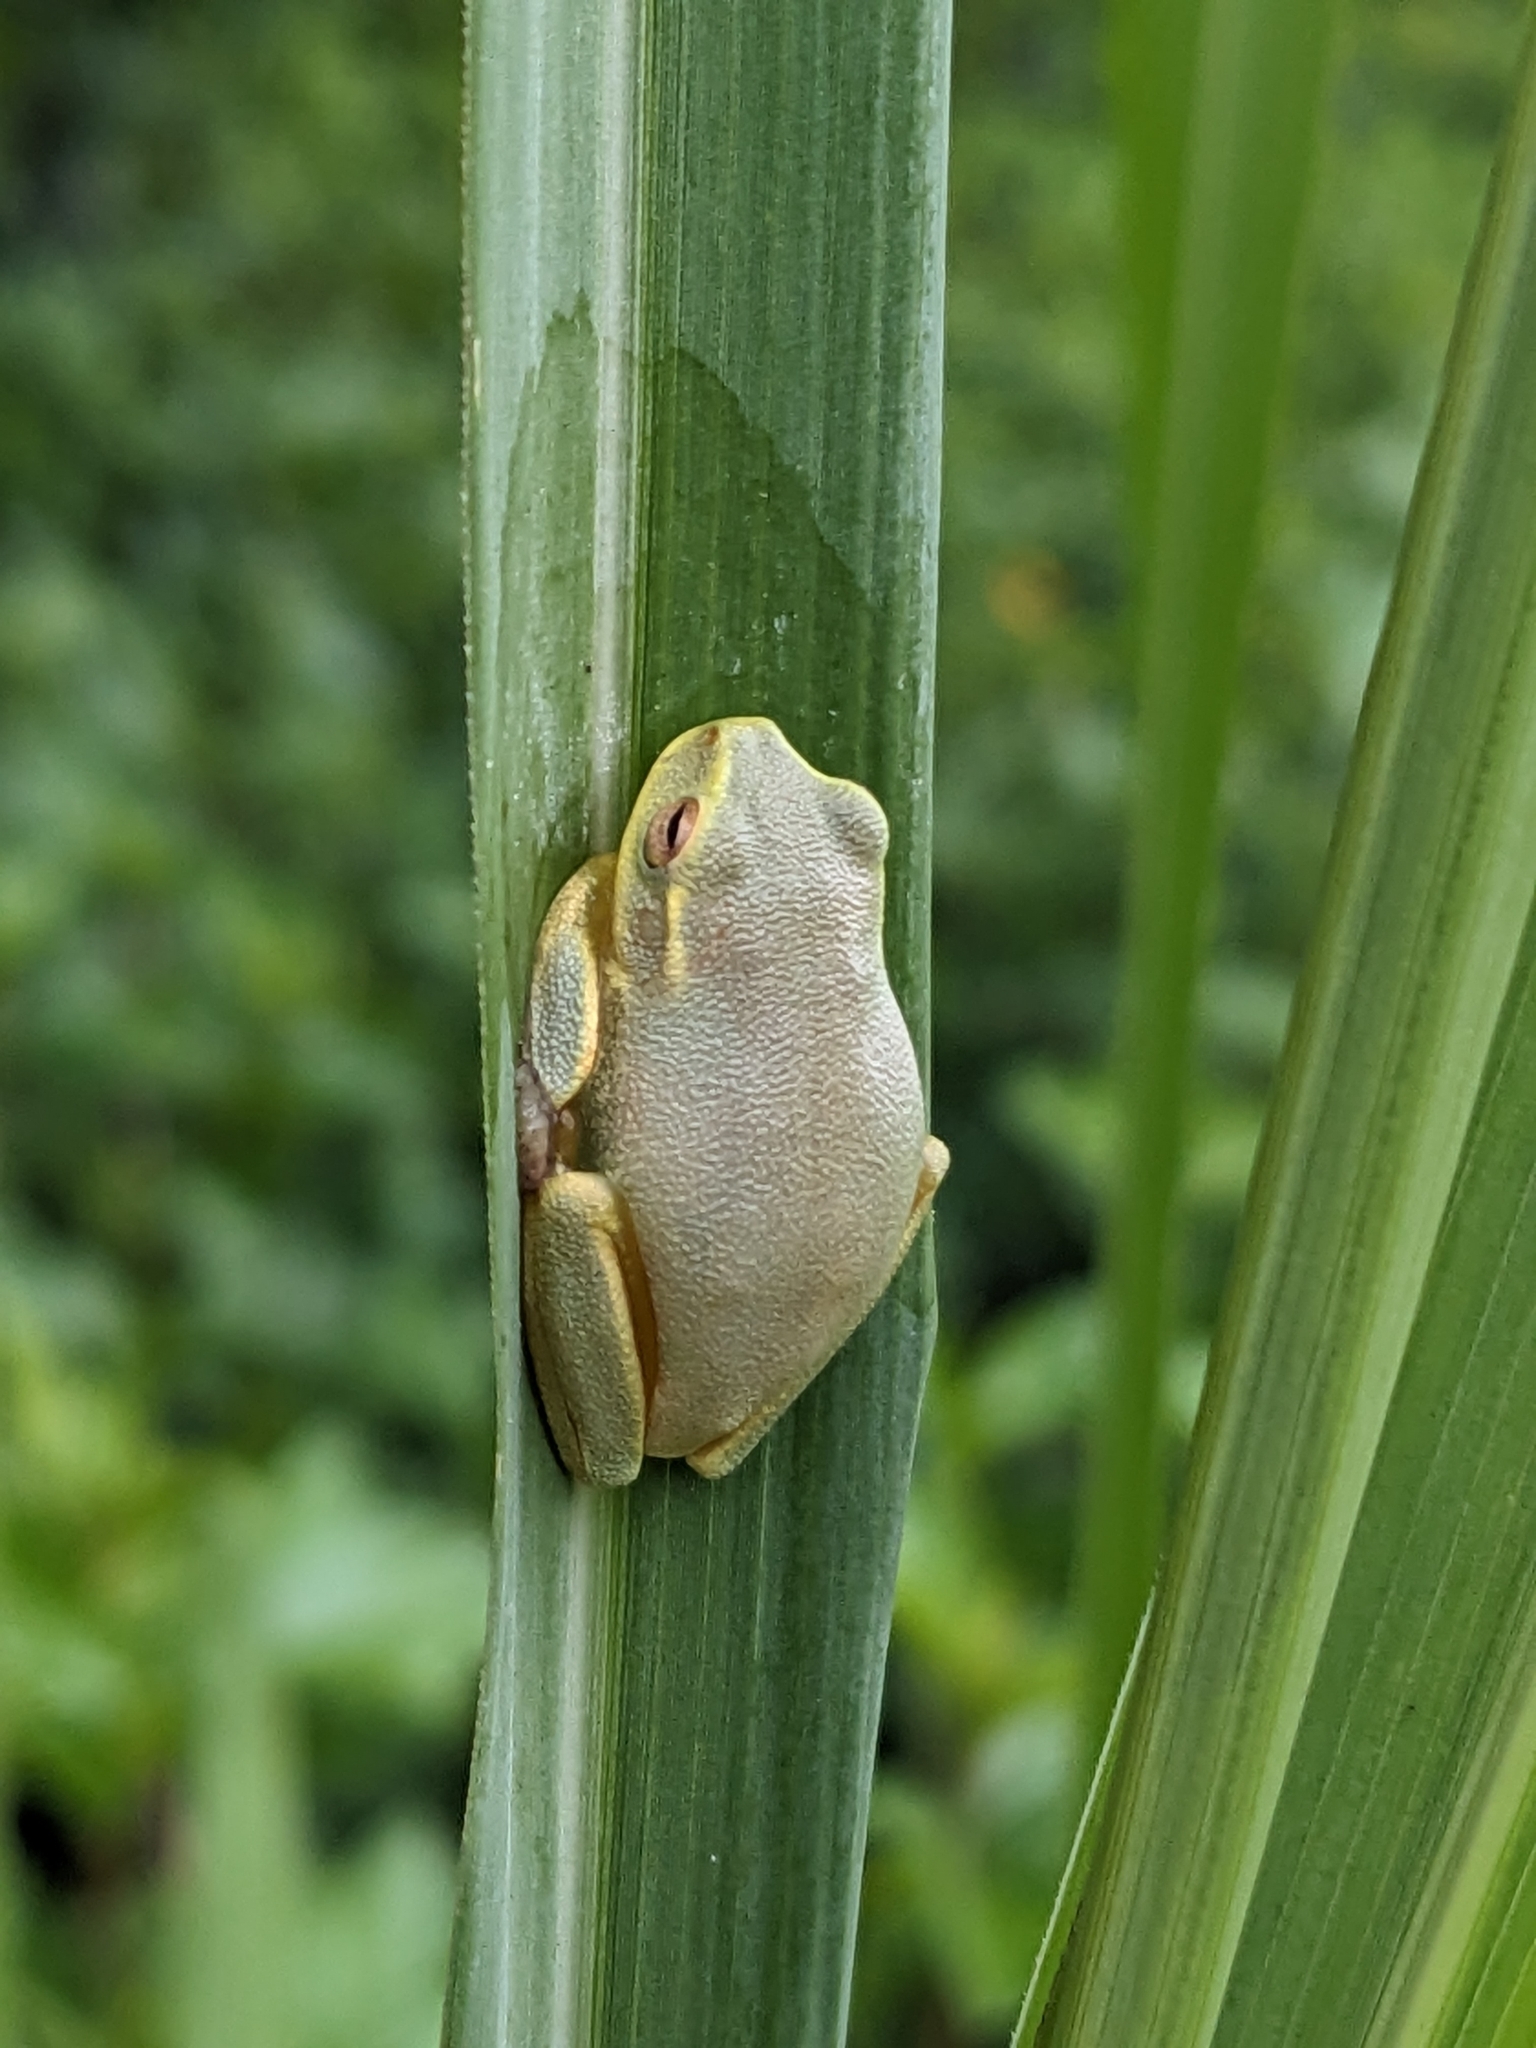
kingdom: Animalia
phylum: Chordata
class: Amphibia
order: Anura
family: Pelodryadidae
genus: Ranoidea
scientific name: Ranoidea gracilenta
